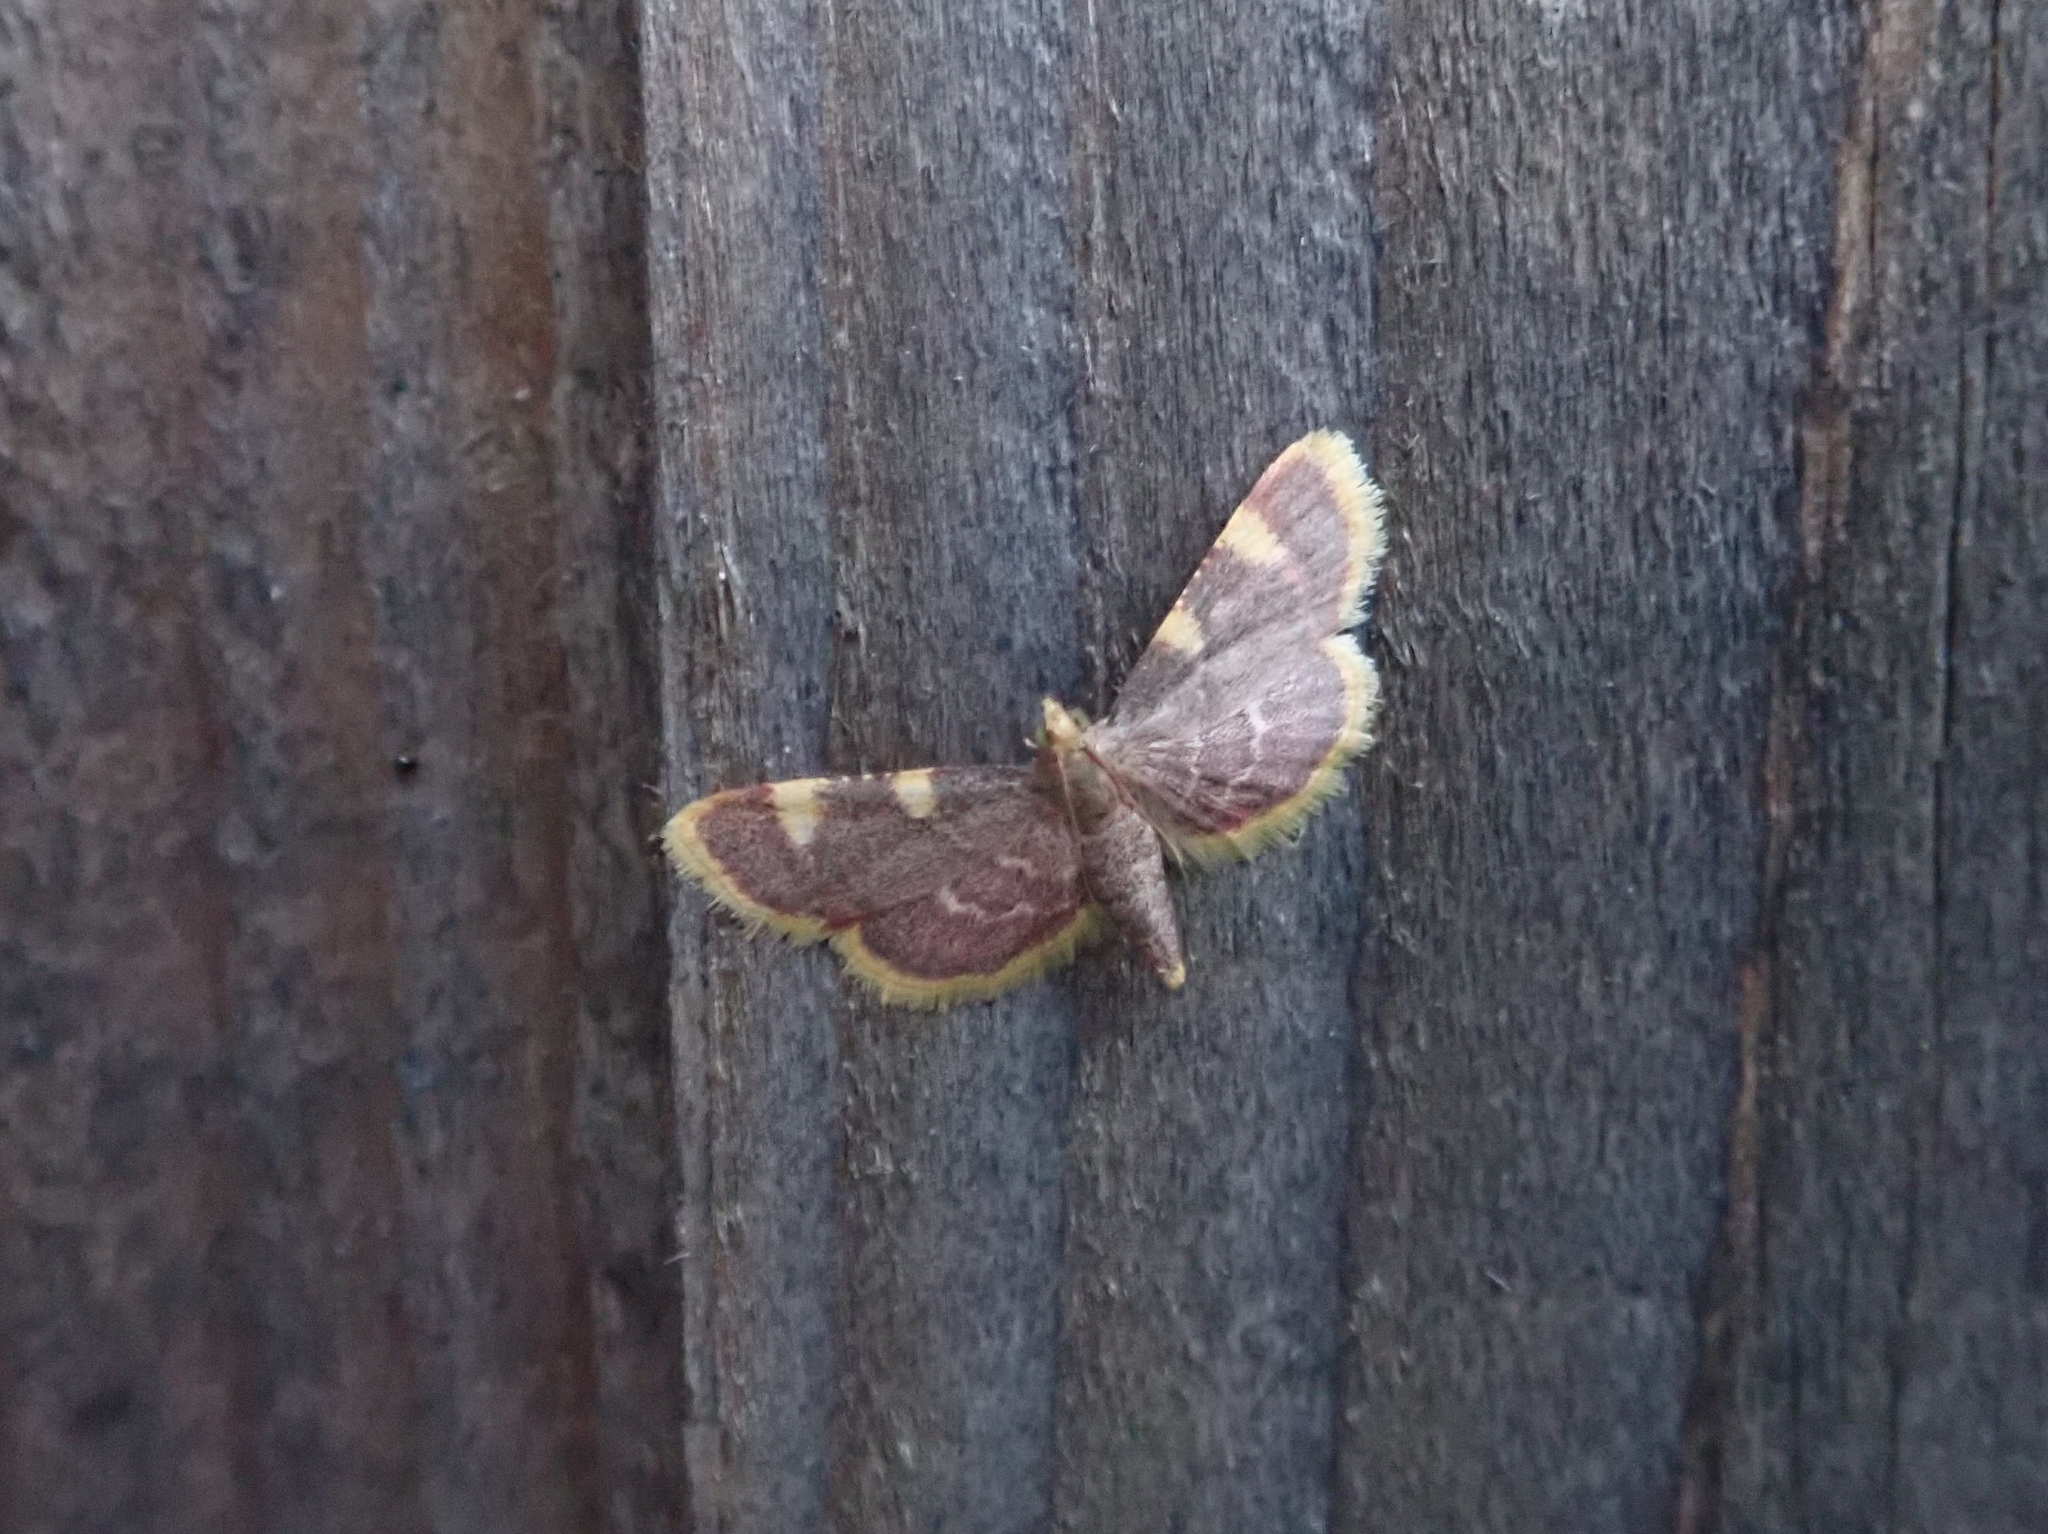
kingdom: Animalia
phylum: Arthropoda
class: Insecta
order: Lepidoptera
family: Pyralidae
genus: Hypsopygia
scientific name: Hypsopygia costalis
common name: Gold triangle
